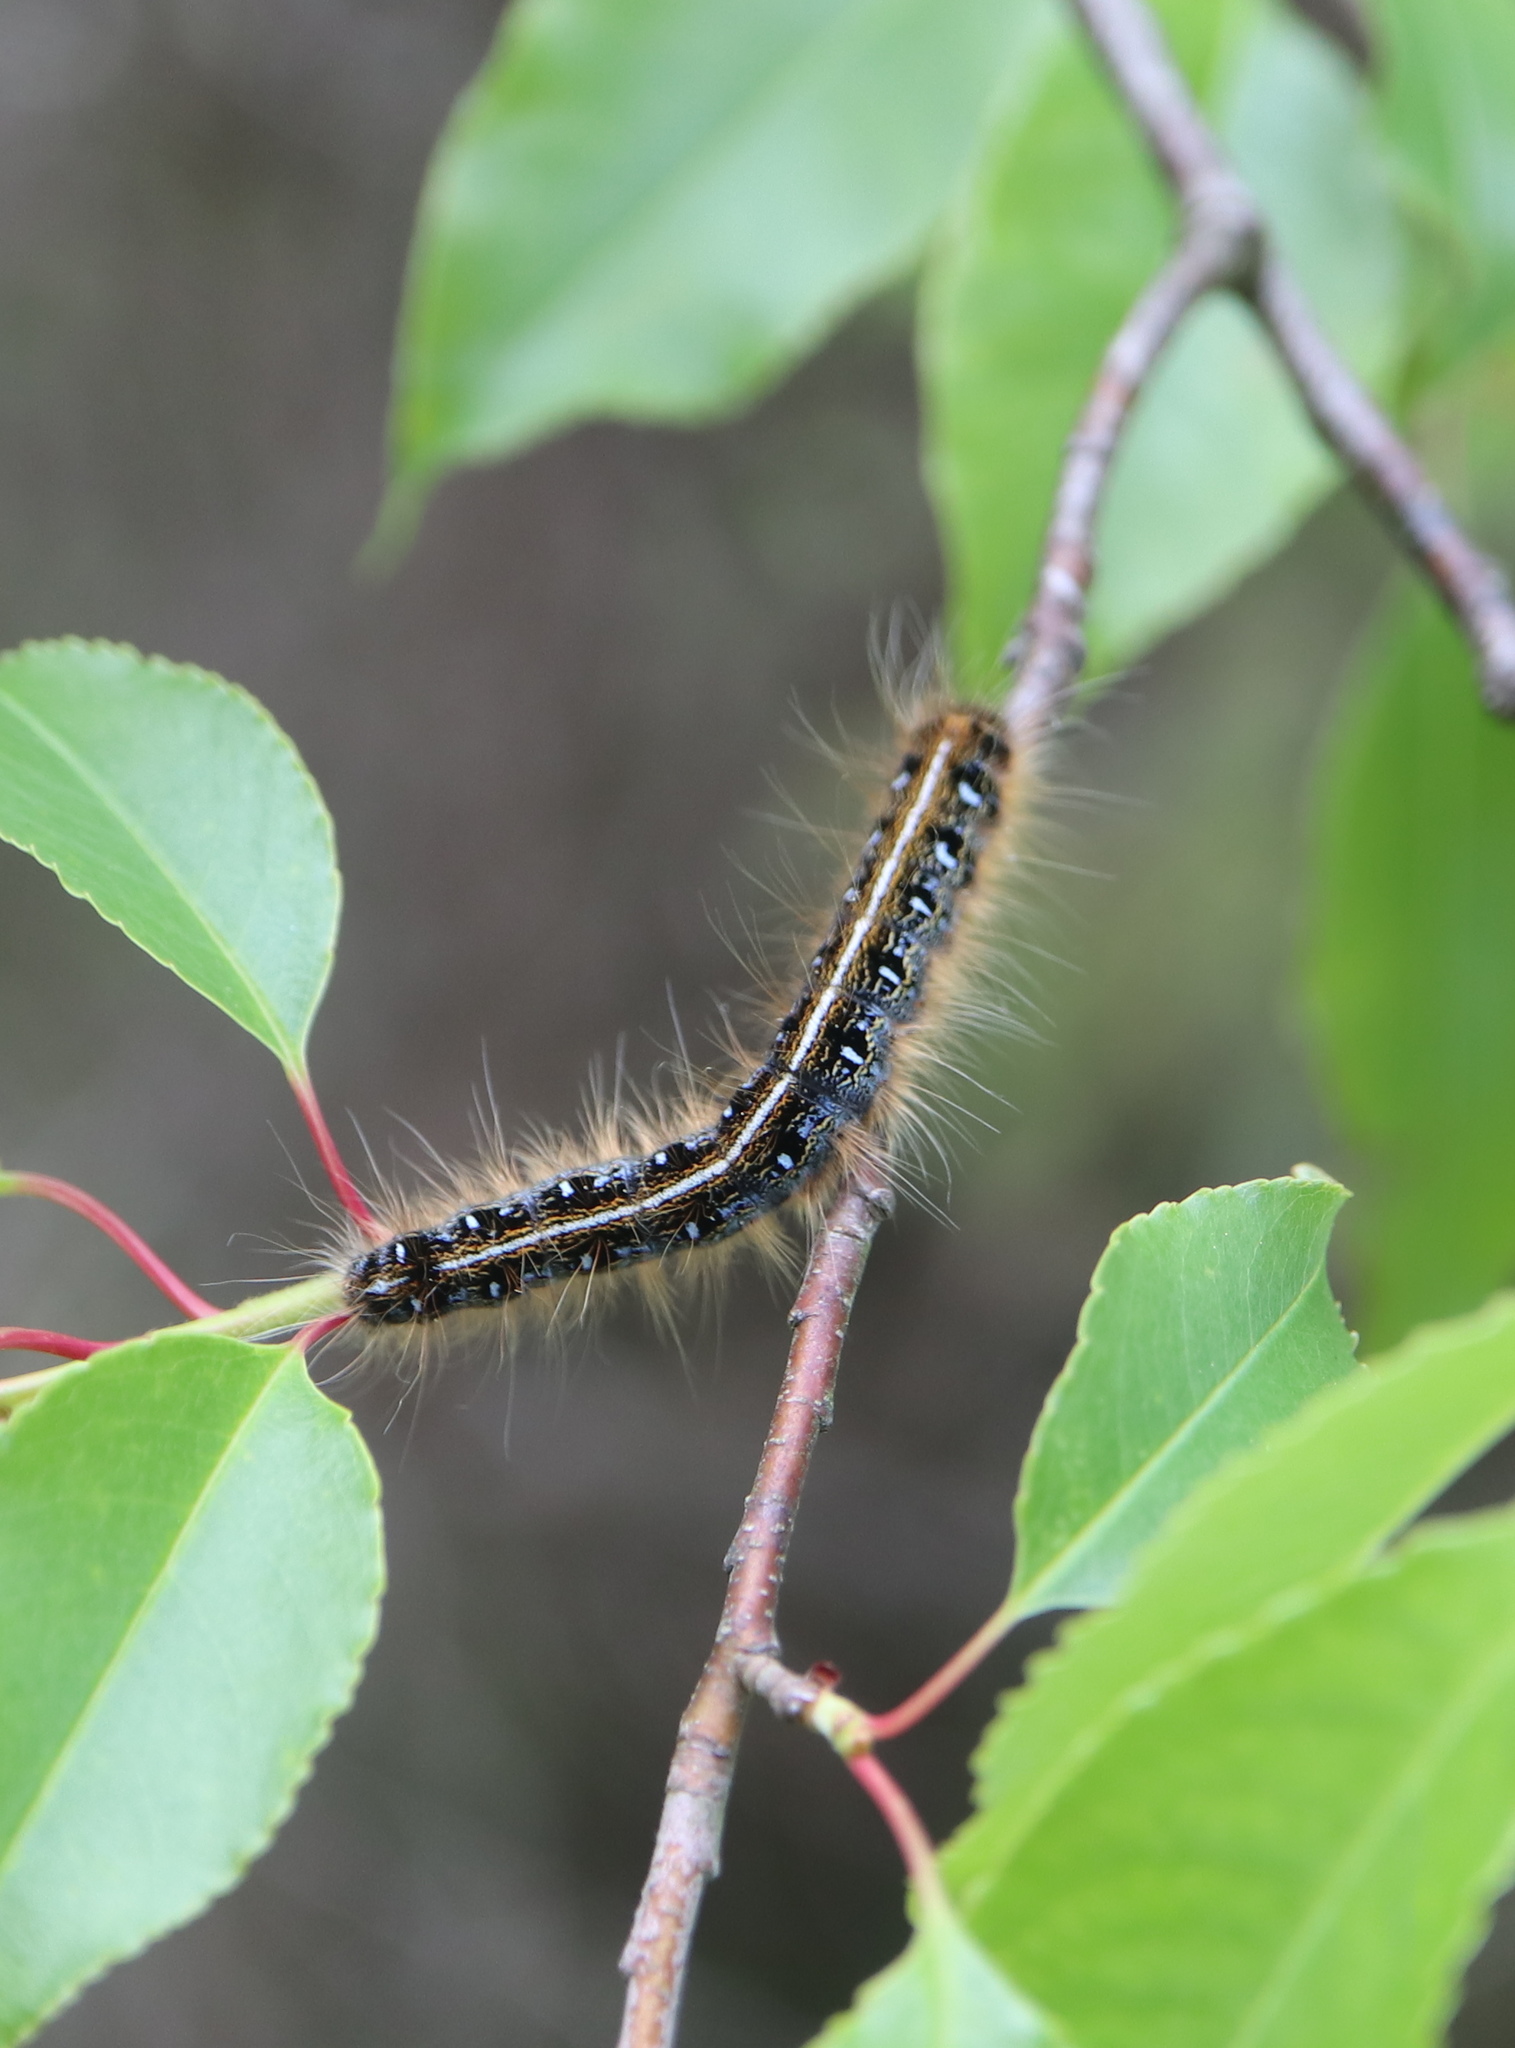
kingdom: Animalia
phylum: Arthropoda
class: Insecta
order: Lepidoptera
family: Lasiocampidae
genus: Malacosoma
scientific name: Malacosoma americana
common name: Eastern tent caterpillar moth
